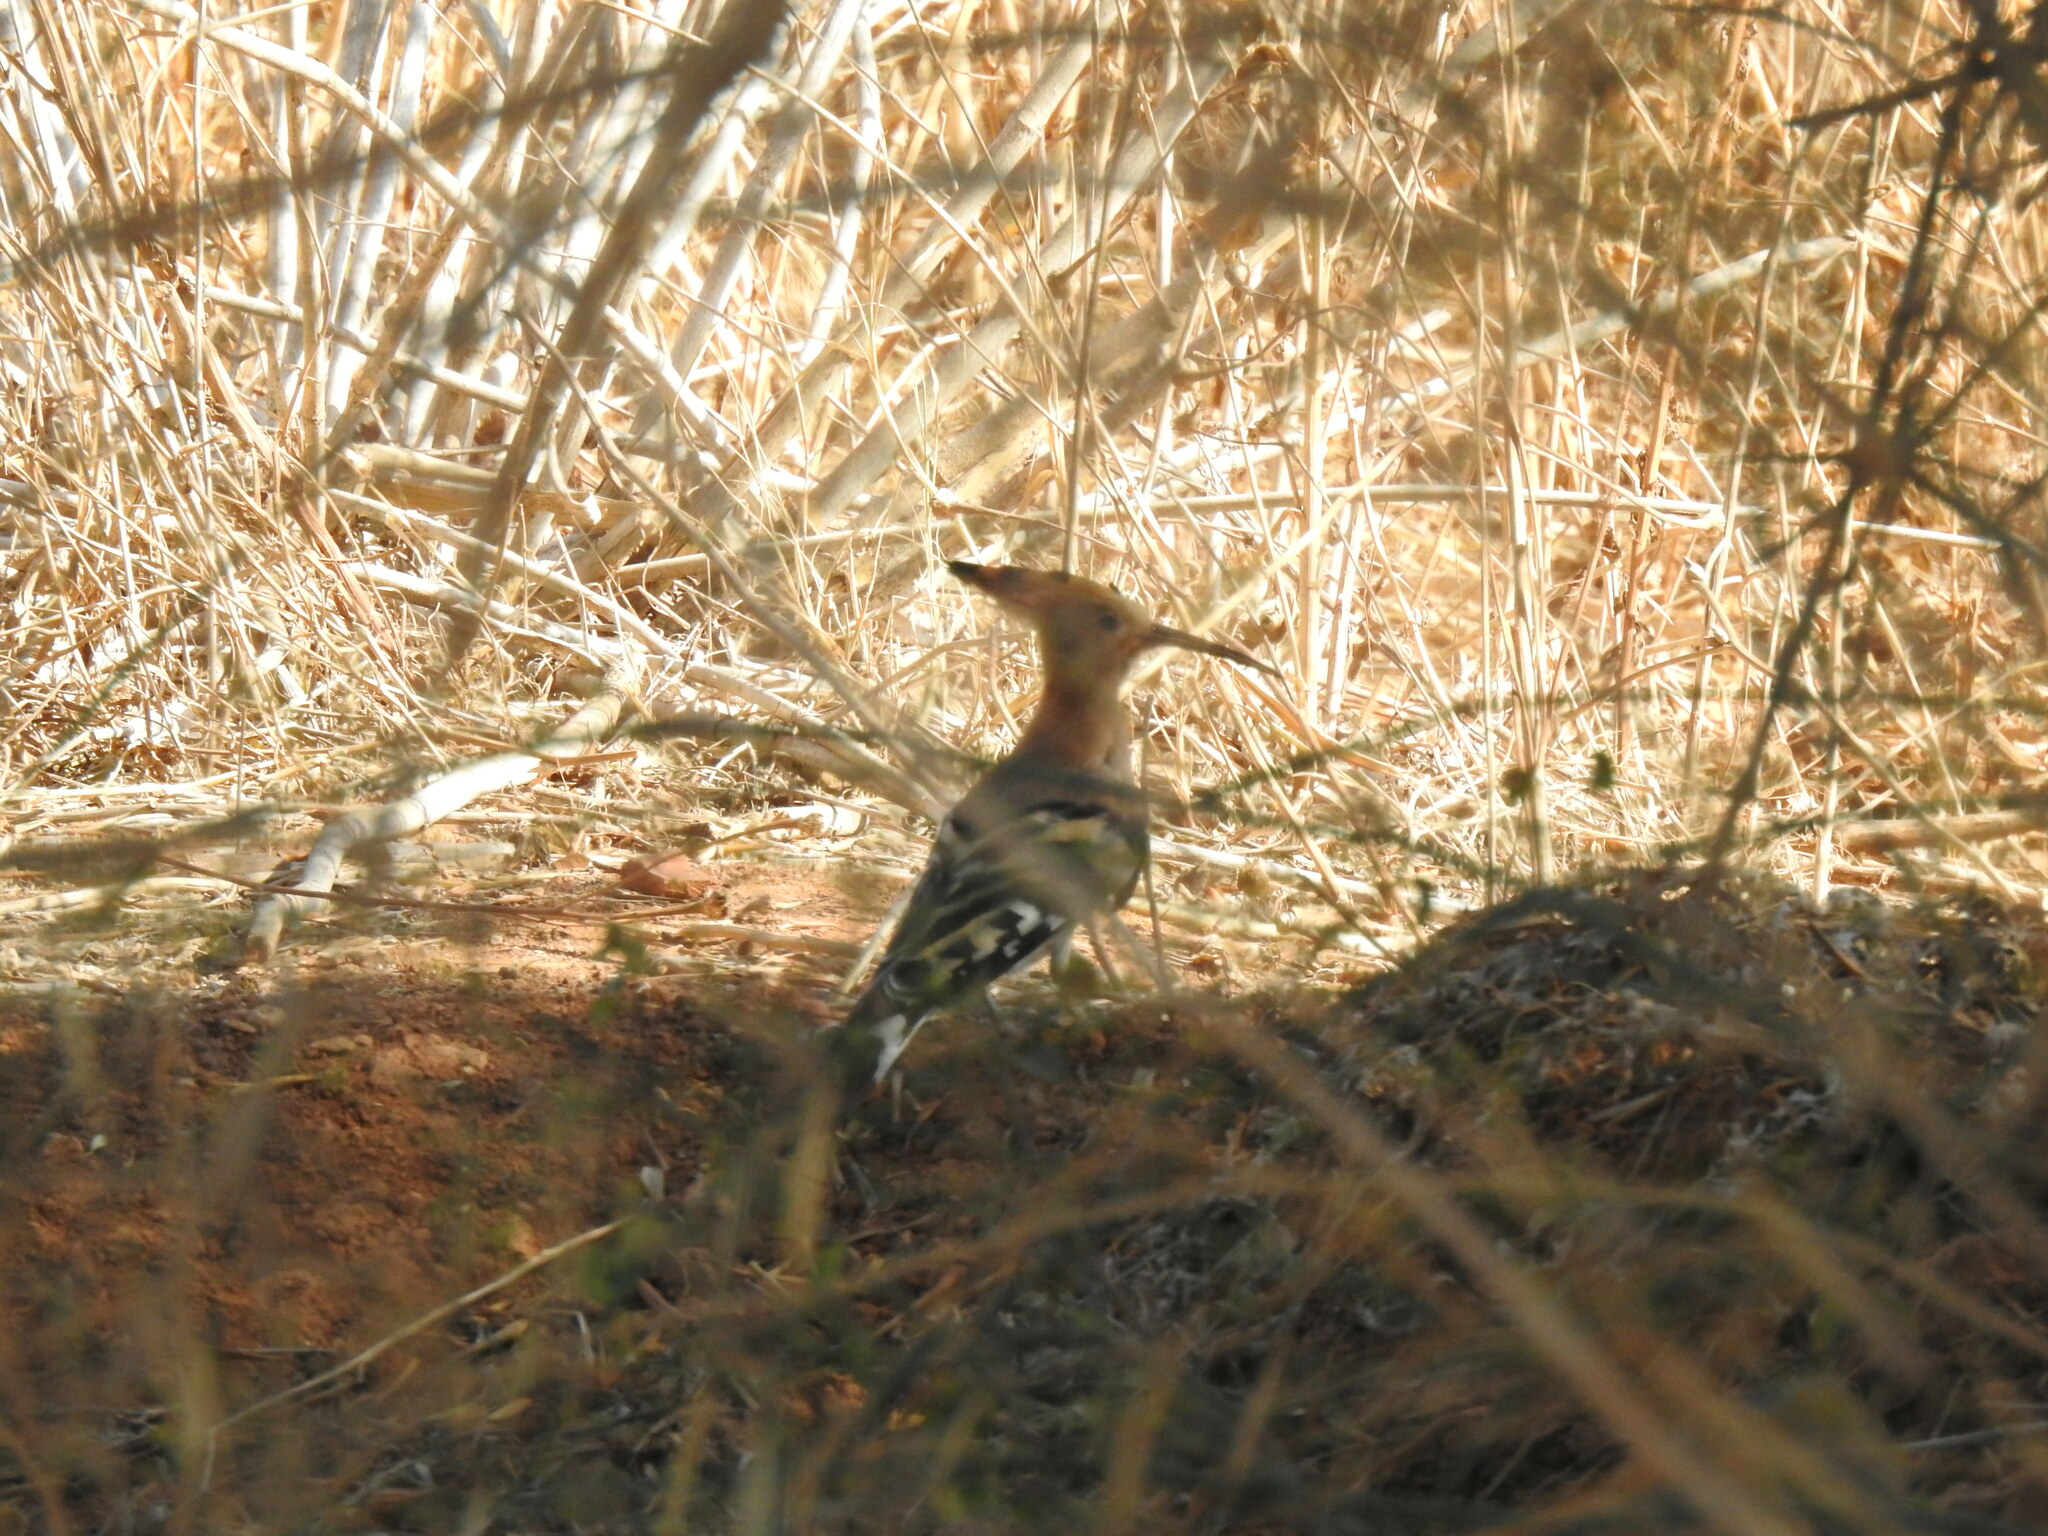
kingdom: Animalia
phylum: Chordata
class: Aves
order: Bucerotiformes
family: Upupidae
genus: Upupa
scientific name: Upupa epops
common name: Eurasian hoopoe
